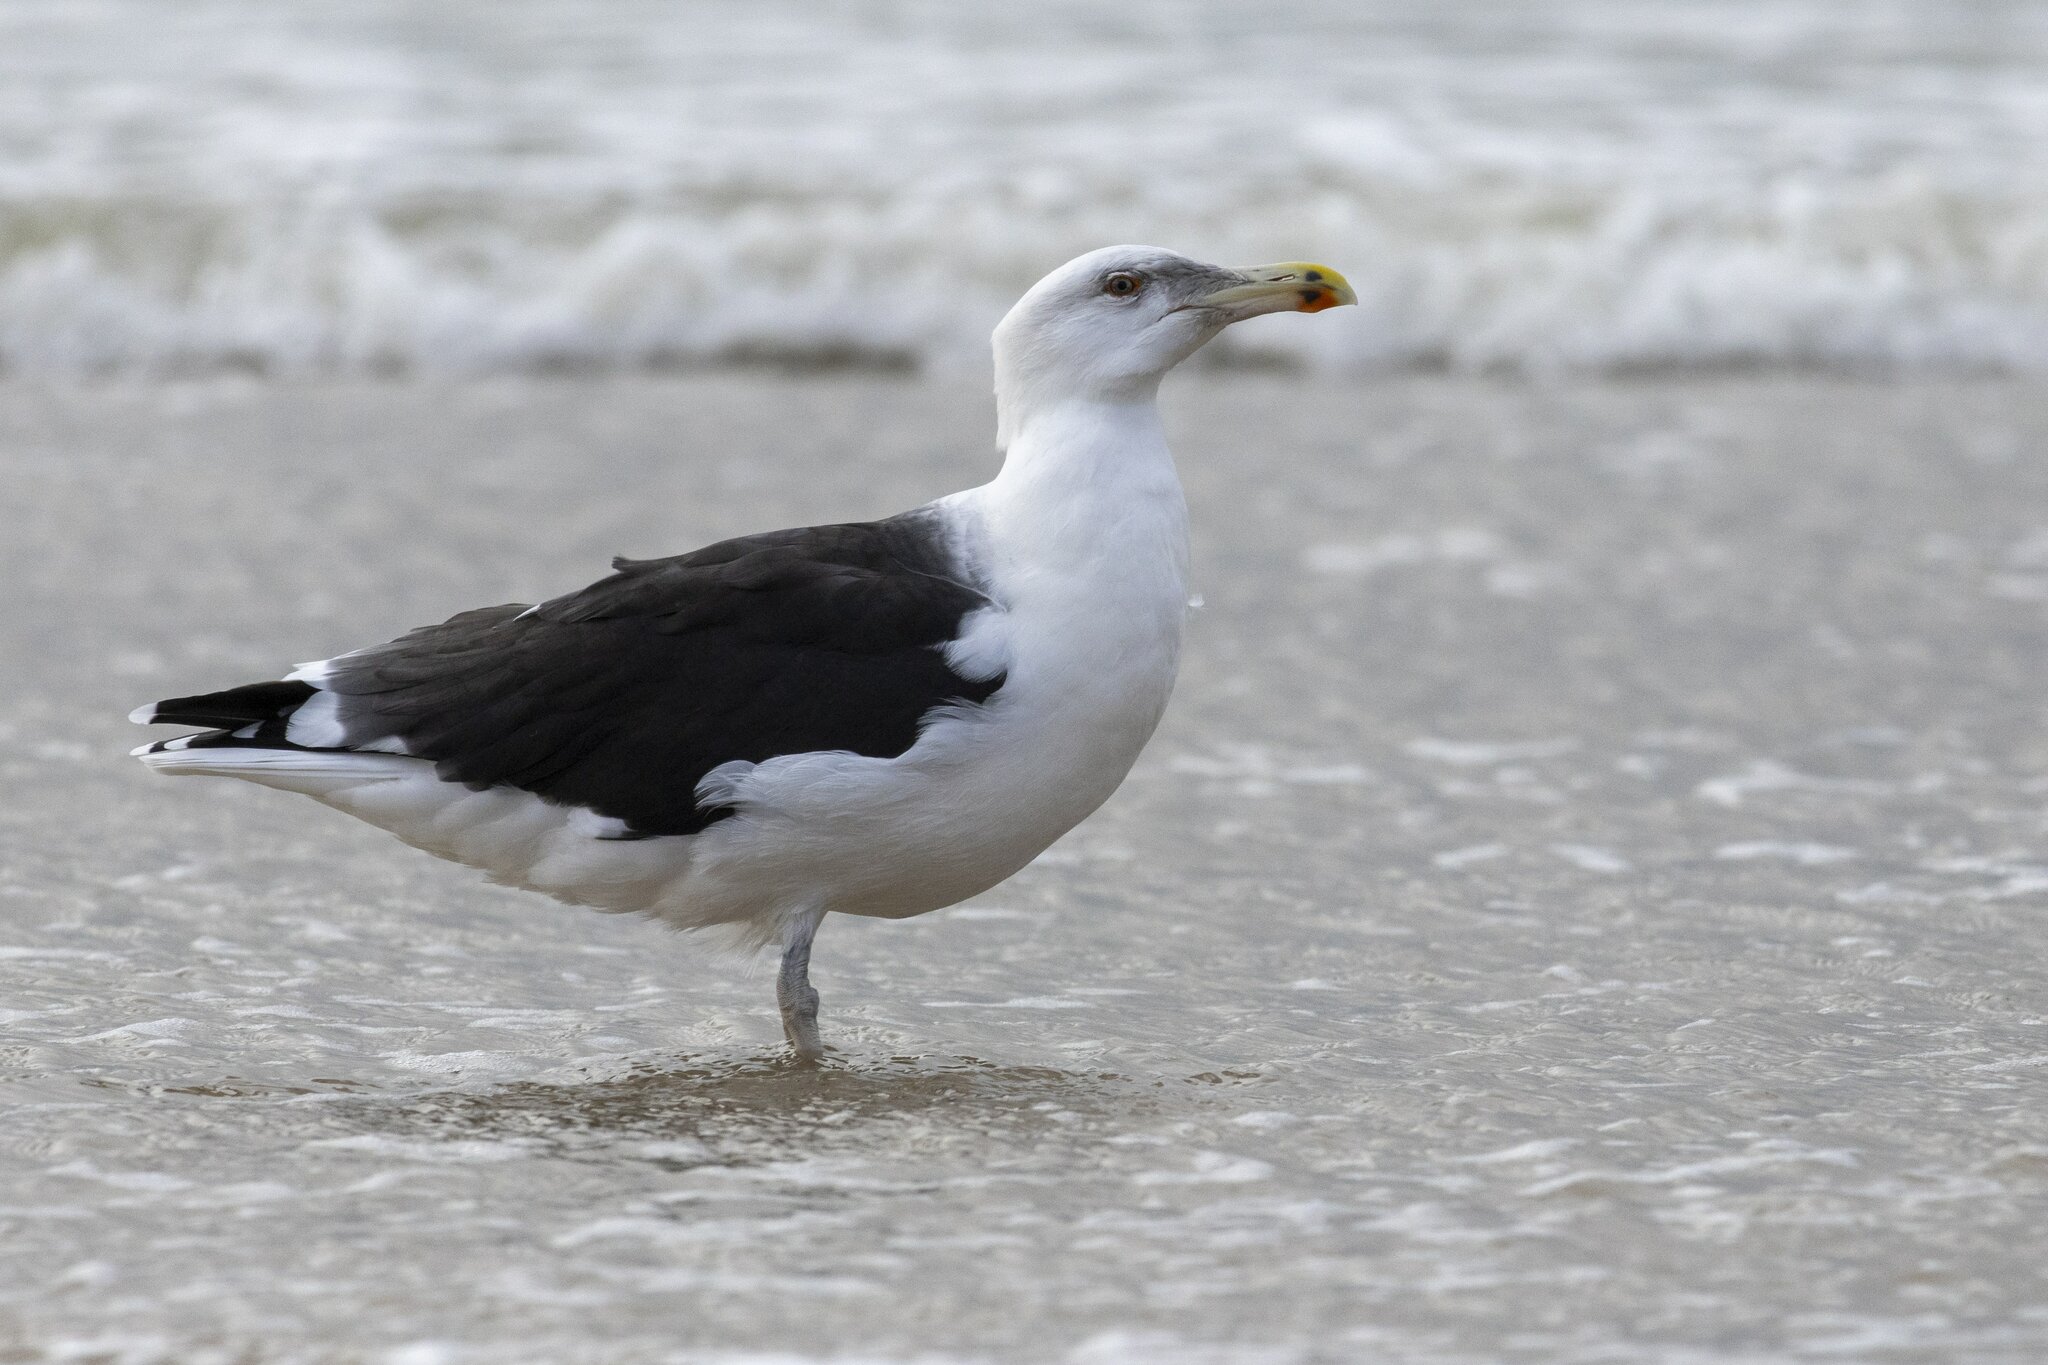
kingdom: Animalia
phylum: Chordata
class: Aves
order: Charadriiformes
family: Laridae
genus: Larus
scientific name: Larus marinus
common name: Great black-backed gull
